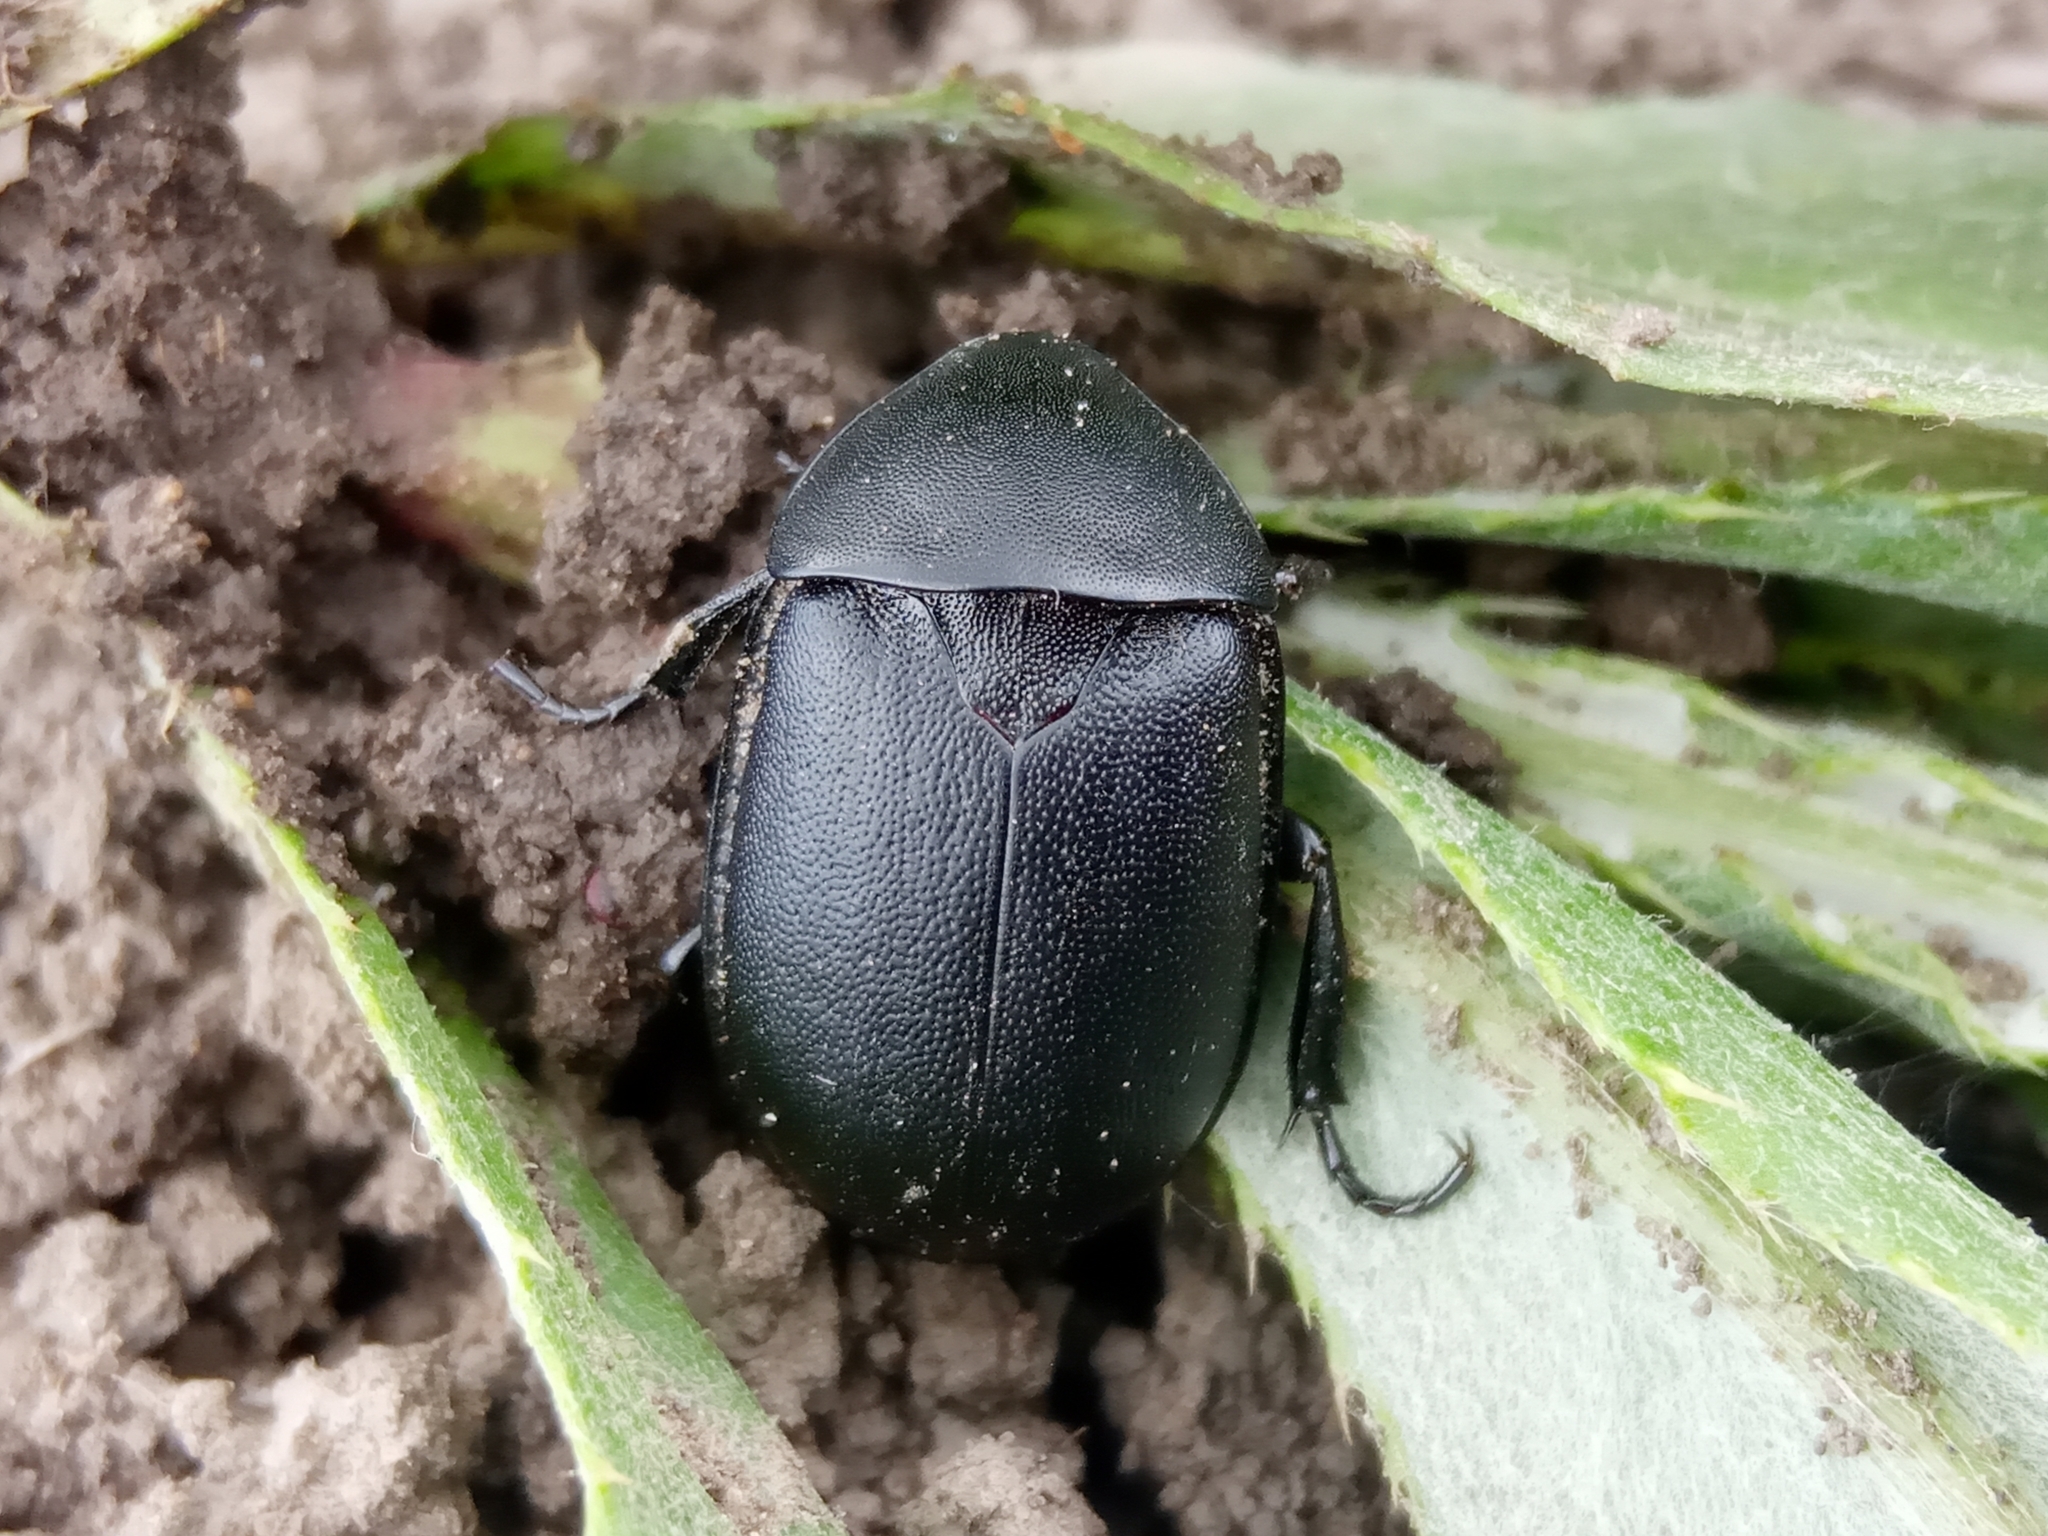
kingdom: Animalia
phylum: Arthropoda
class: Insecta
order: Coleoptera
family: Staphylinidae
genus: Silpha
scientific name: Silpha laevigata
